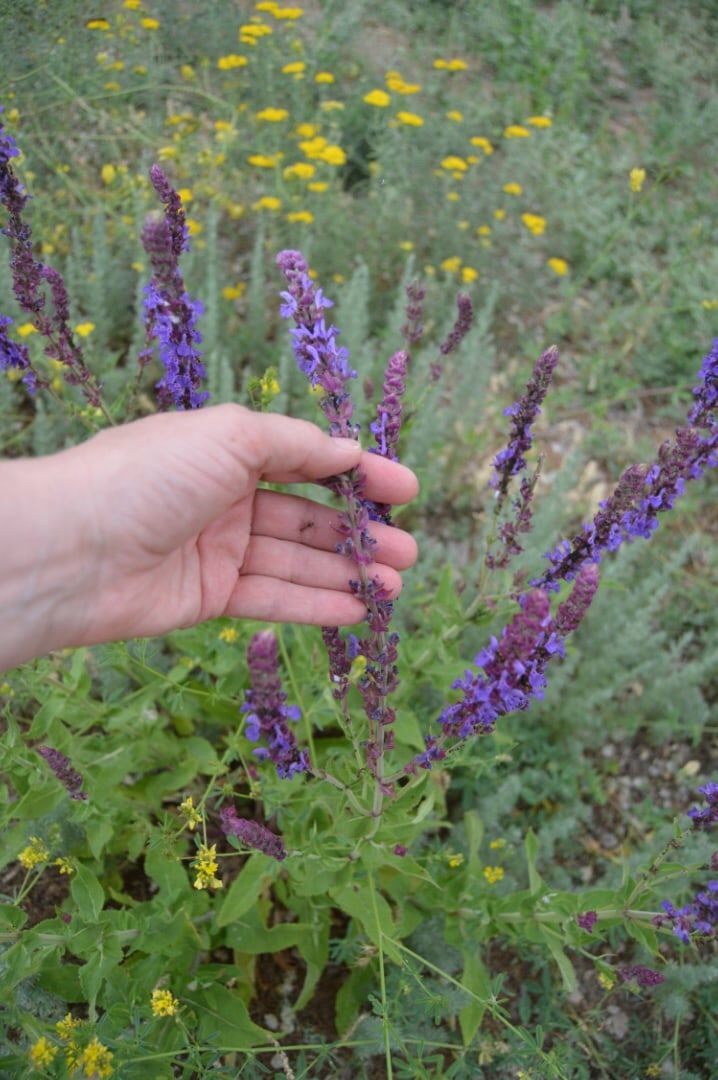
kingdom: Plantae
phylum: Tracheophyta
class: Magnoliopsida
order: Lamiales
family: Lamiaceae
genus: Salvia
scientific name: Salvia nemorosa
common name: Balkan clary
